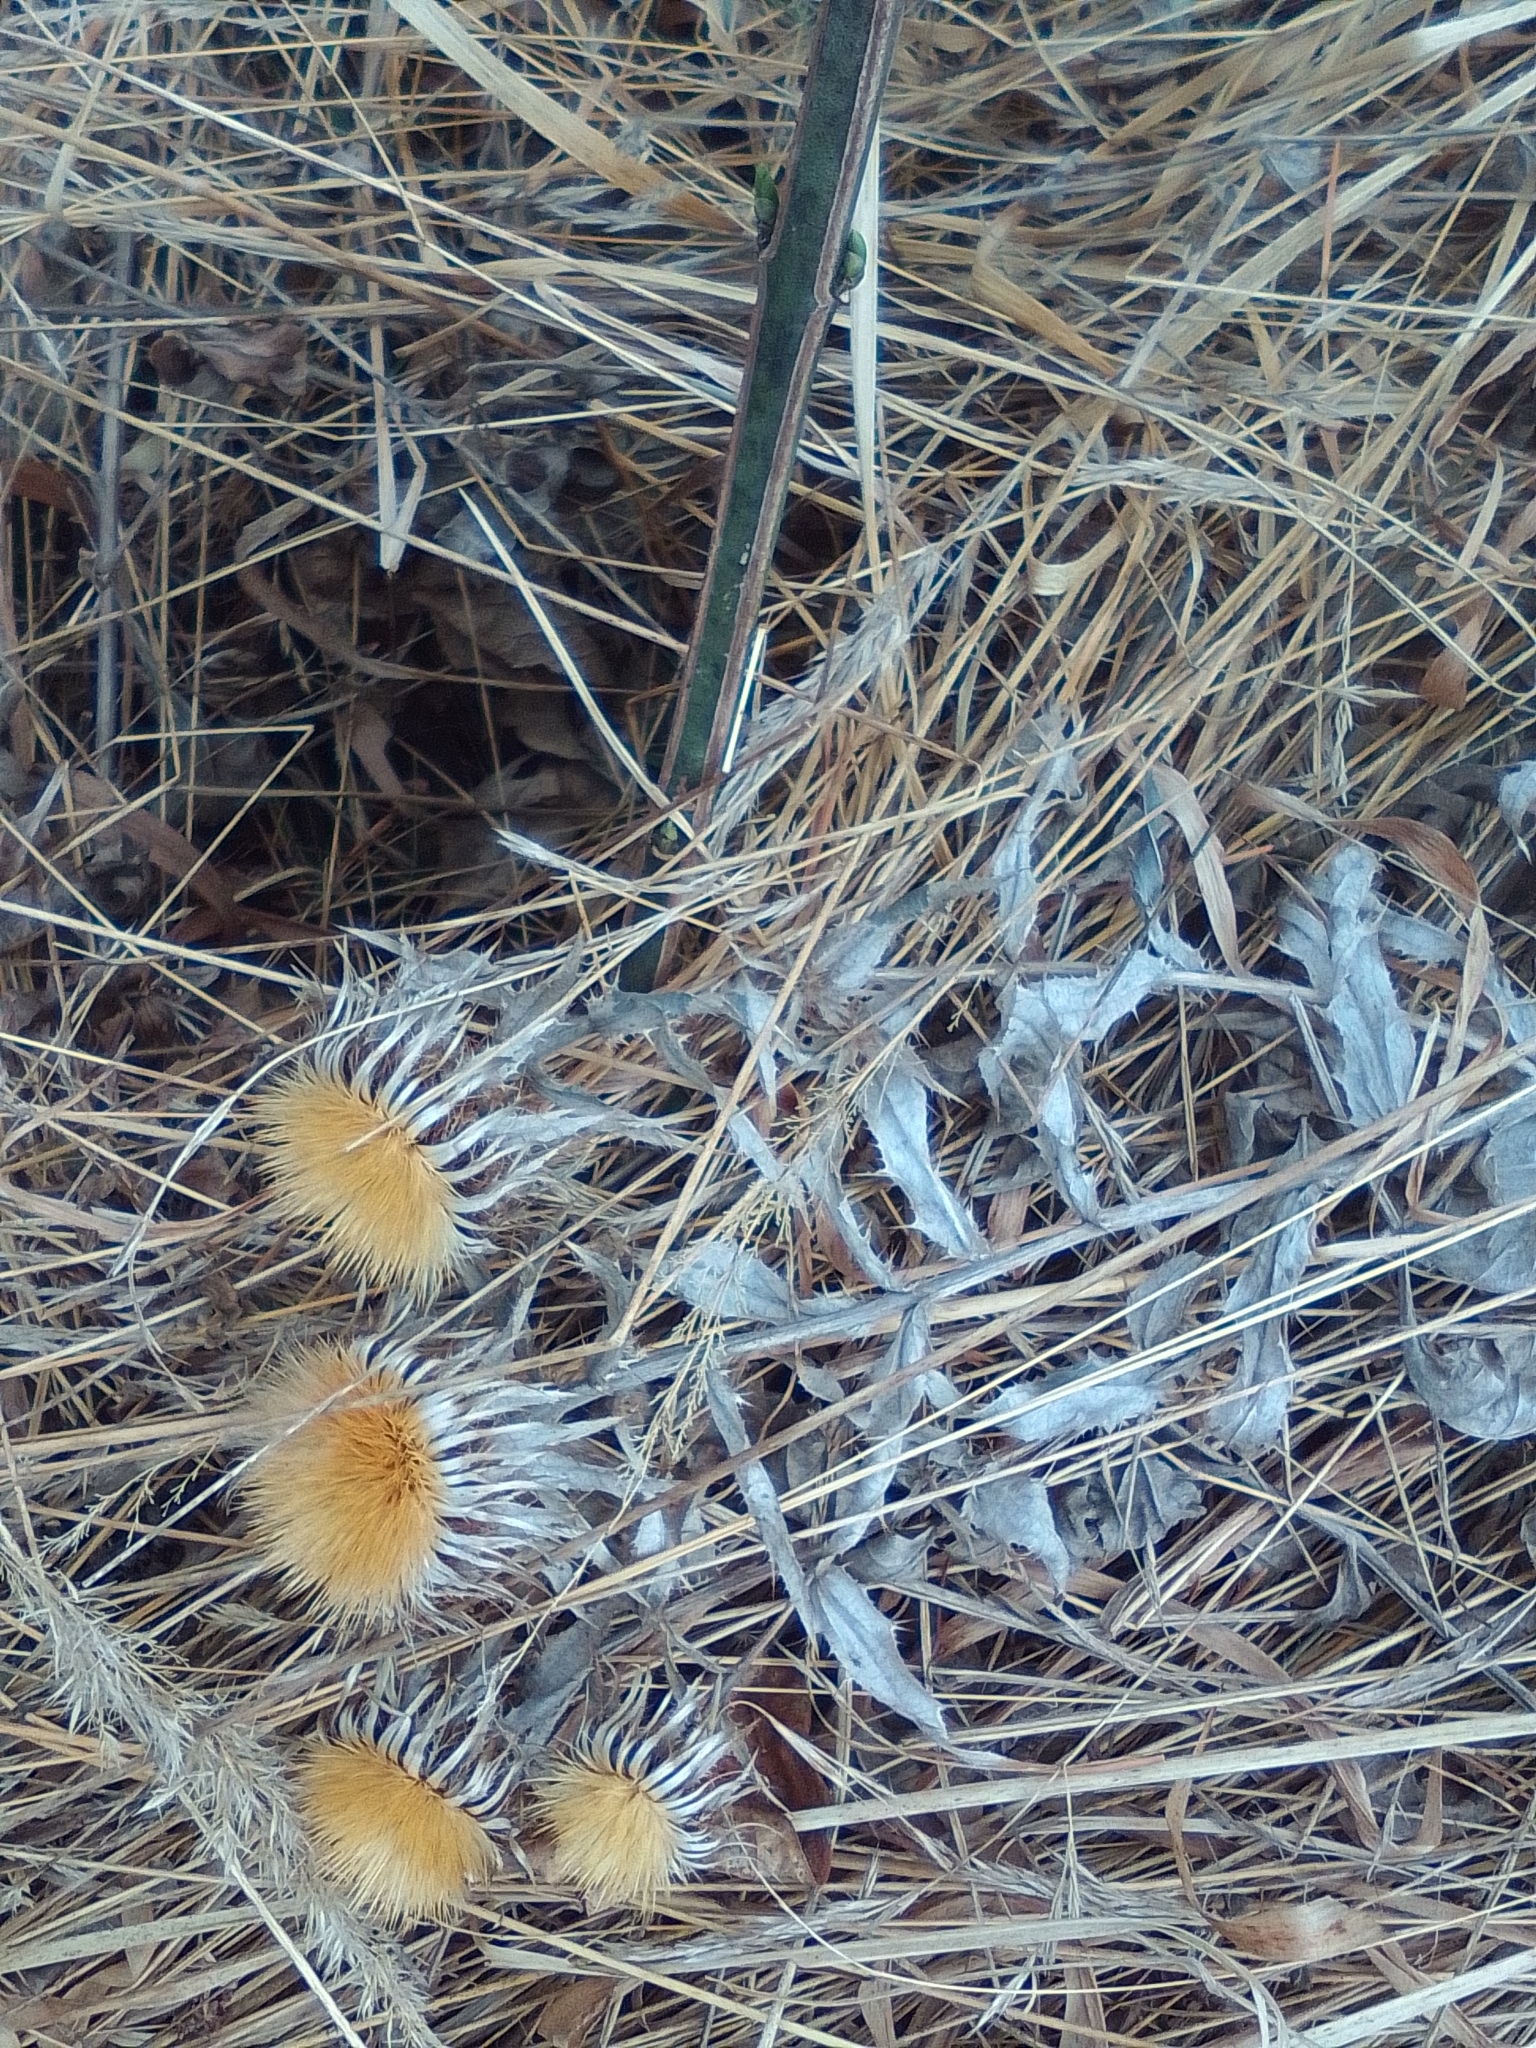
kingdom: Plantae
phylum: Tracheophyta
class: Magnoliopsida
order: Asterales
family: Asteraceae
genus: Carlina
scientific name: Carlina biebersteinii
